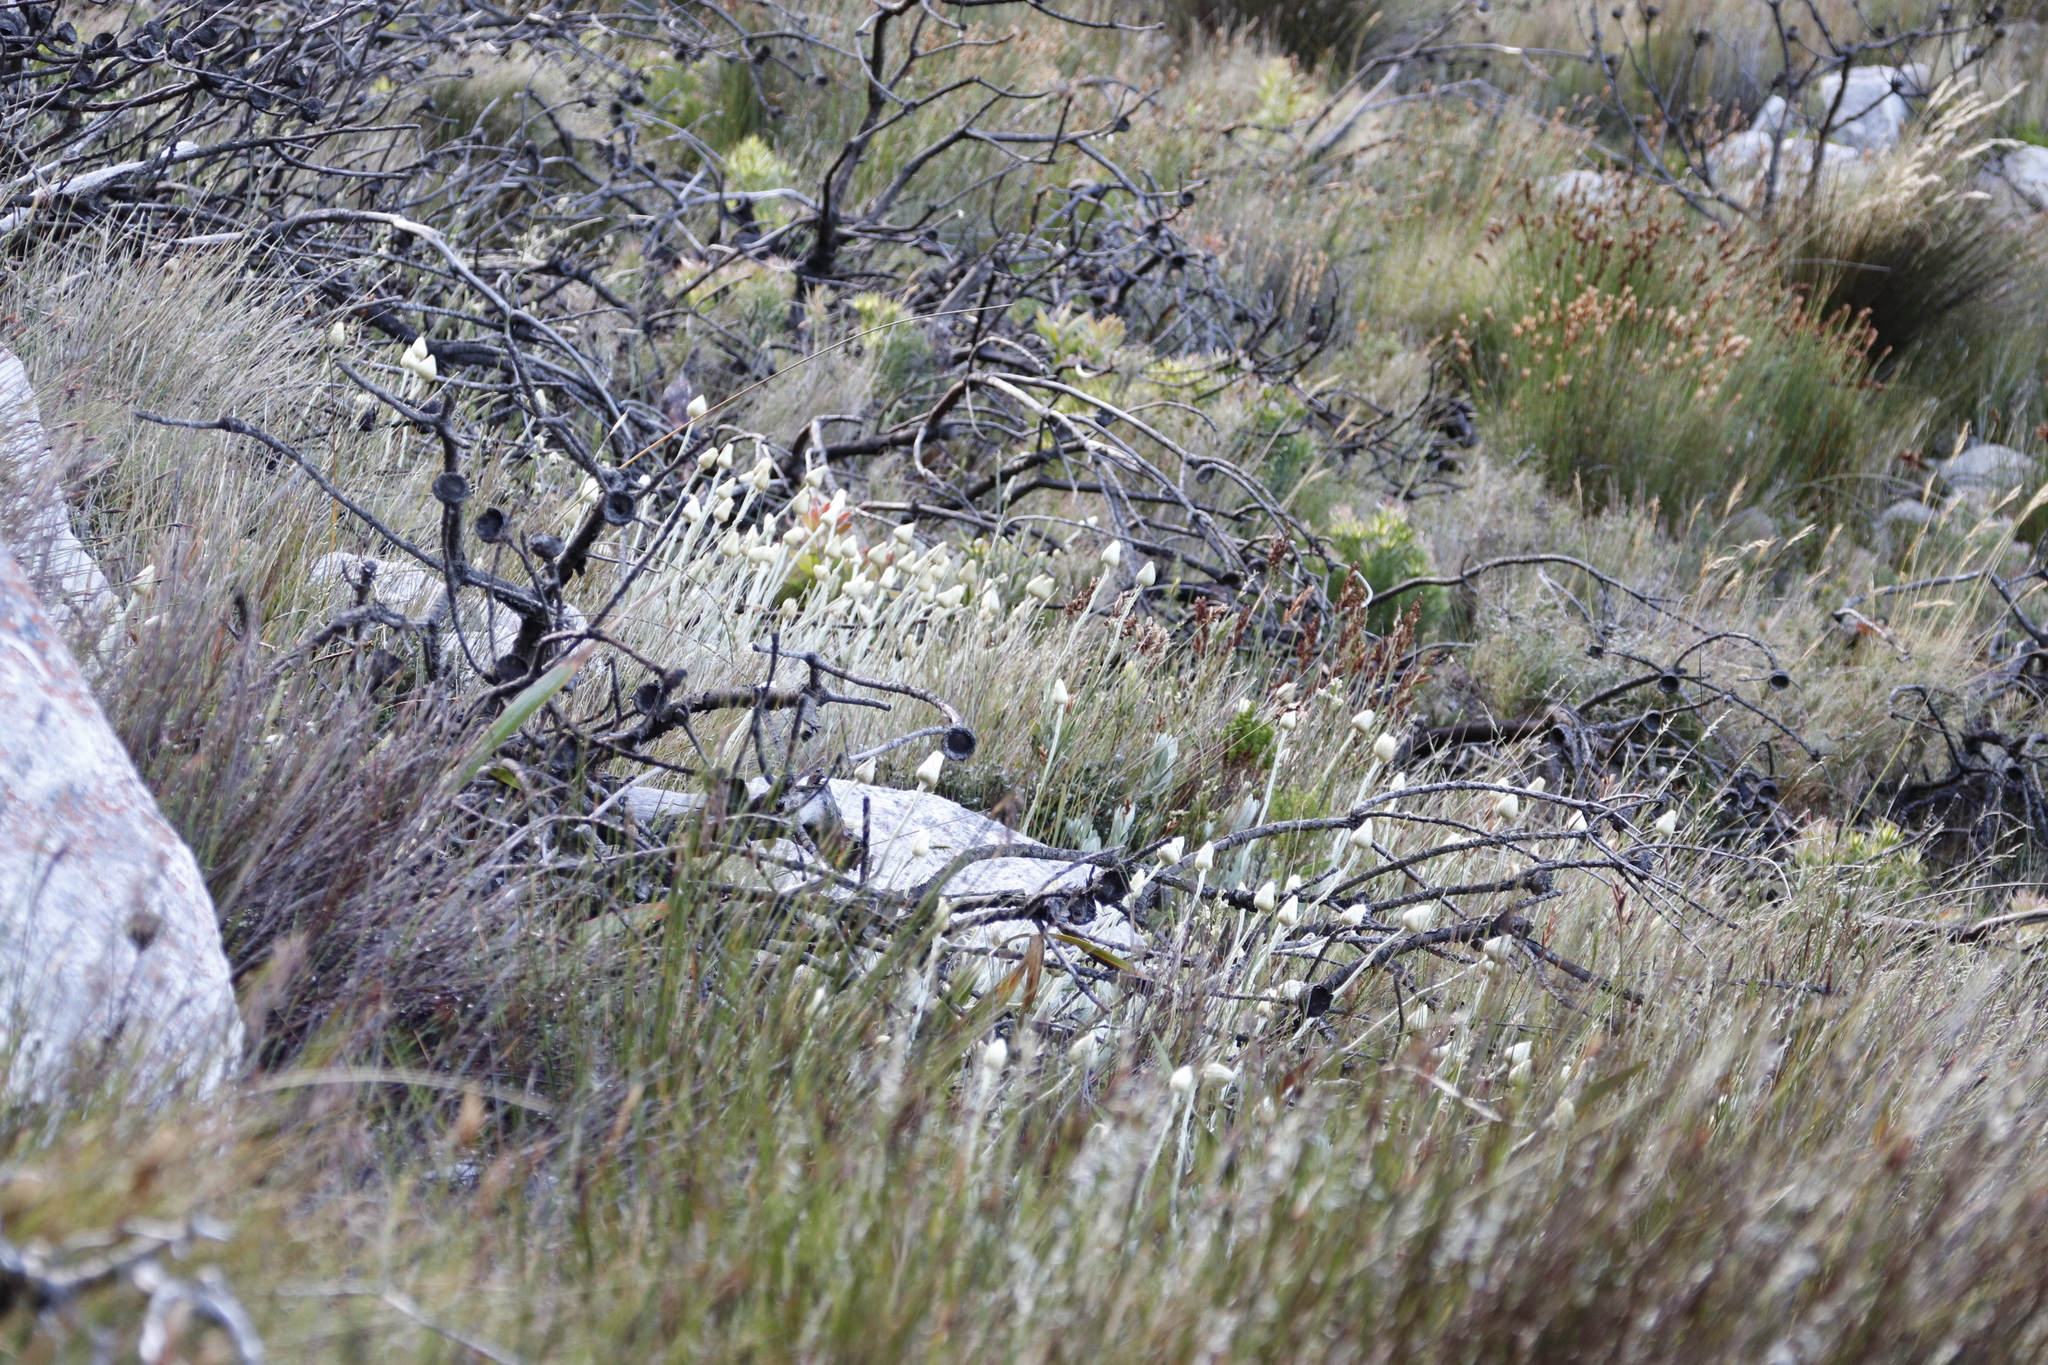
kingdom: Plantae
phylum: Tracheophyta
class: Magnoliopsida
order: Asterales
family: Asteraceae
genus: Syncarpha
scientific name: Syncarpha speciosissima
